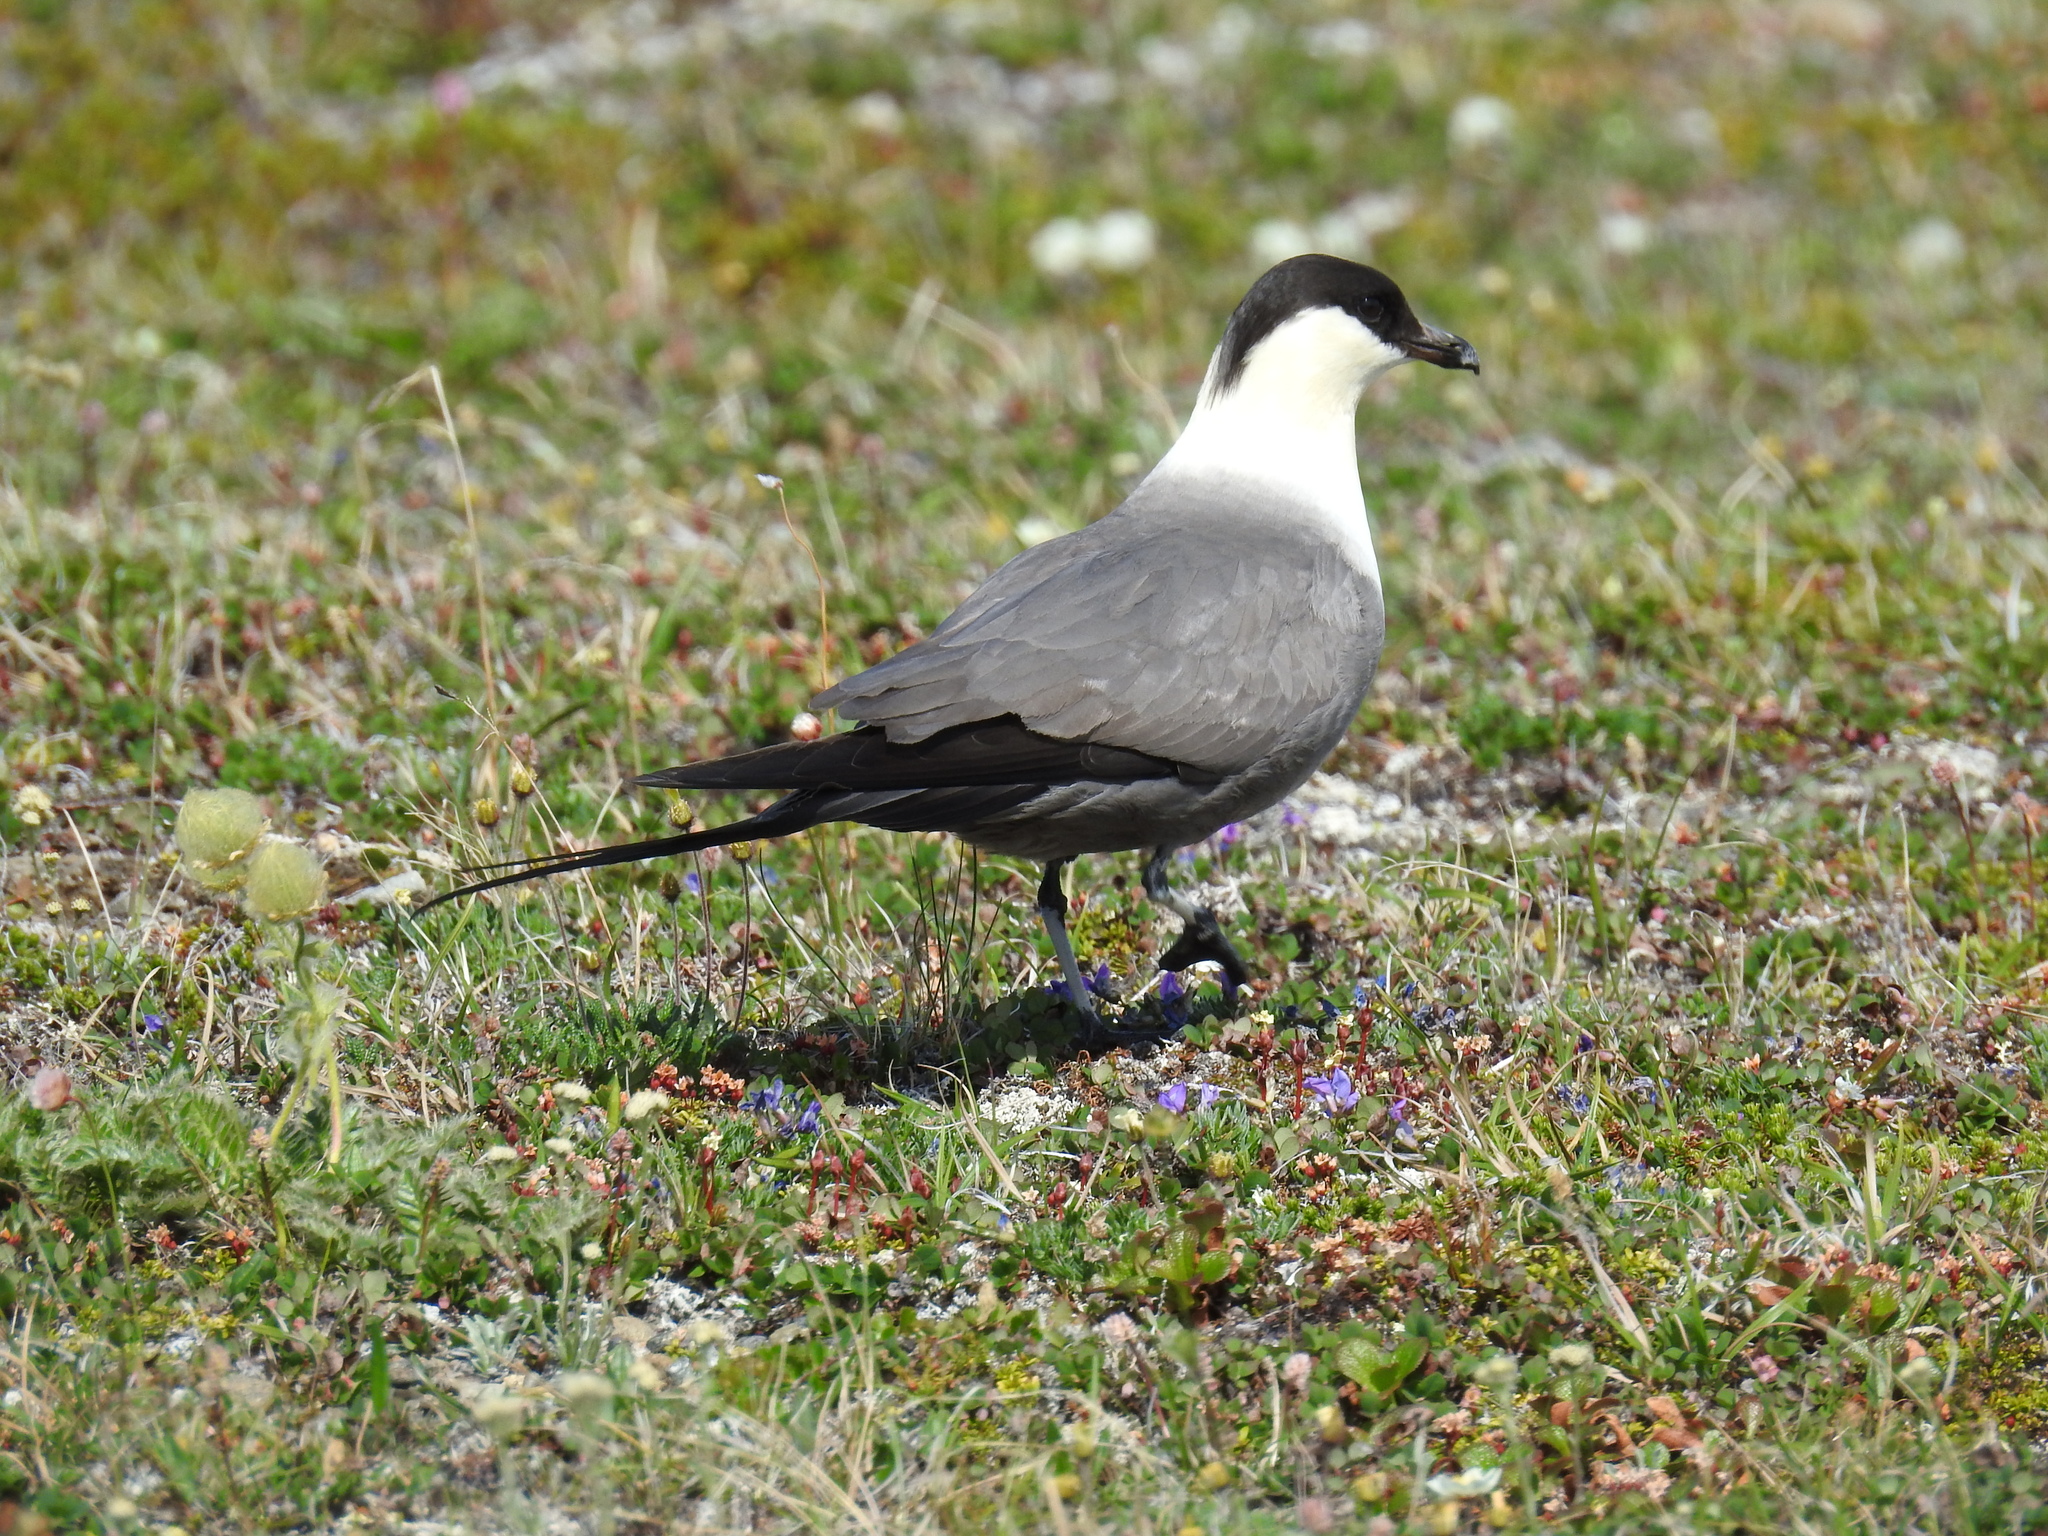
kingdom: Animalia
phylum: Chordata
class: Aves
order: Charadriiformes
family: Stercorariidae
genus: Stercorarius
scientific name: Stercorarius longicaudus
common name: Long-tailed jaeger
